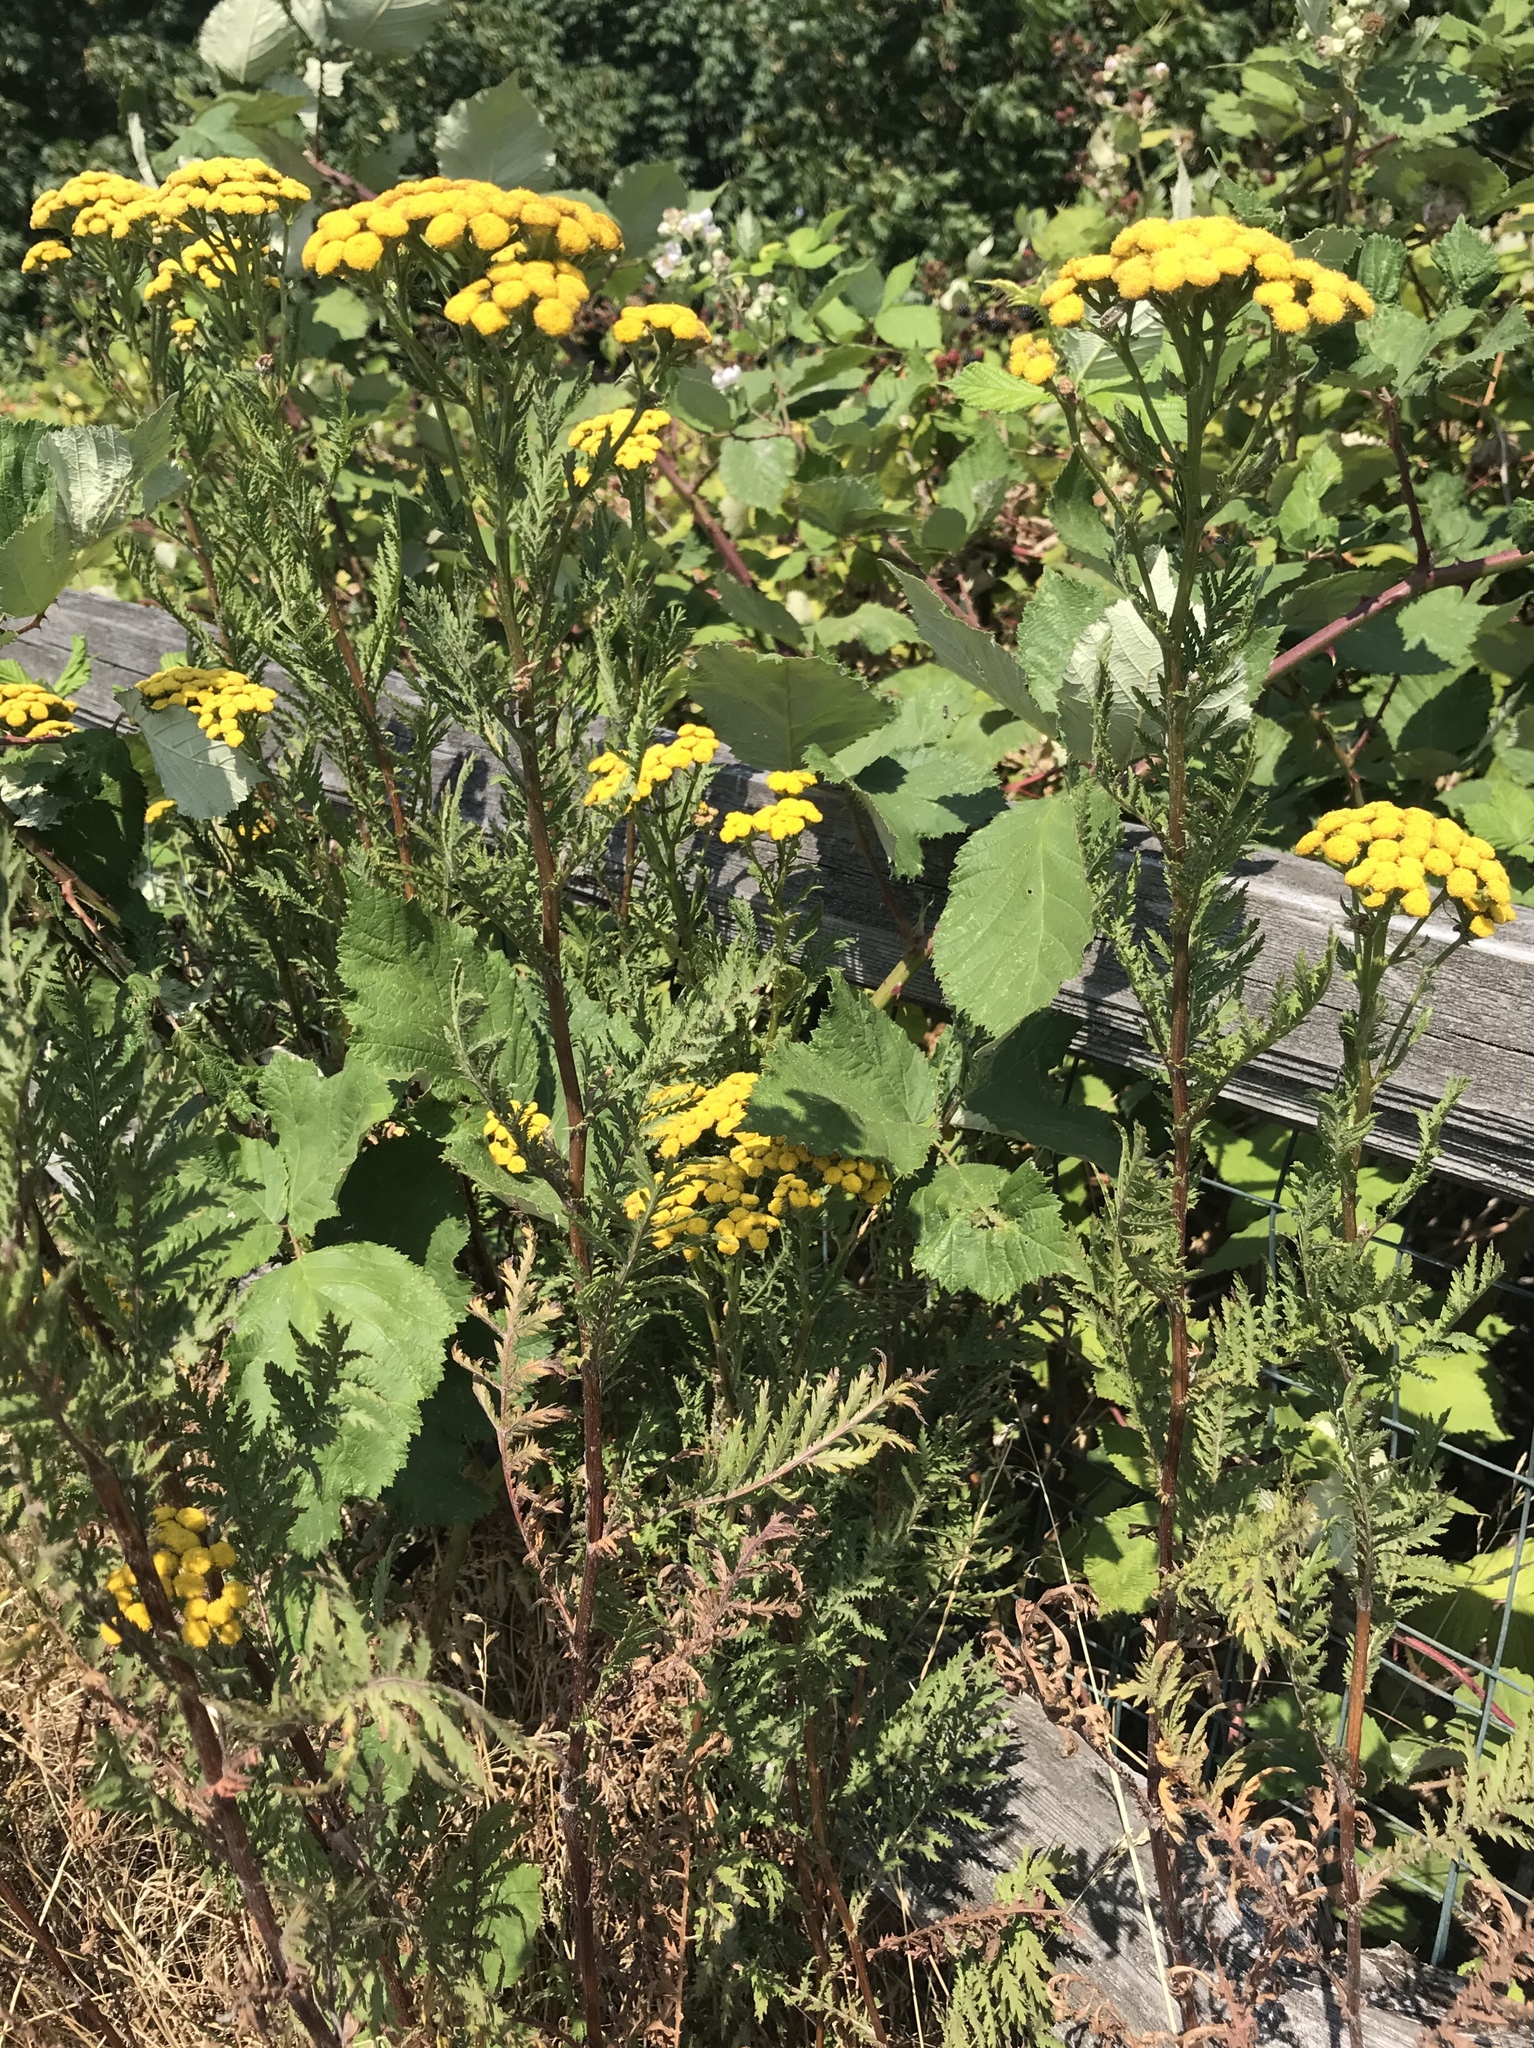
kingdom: Plantae
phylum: Tracheophyta
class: Magnoliopsida
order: Asterales
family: Asteraceae
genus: Tanacetum
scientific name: Tanacetum vulgare
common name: Common tansy
